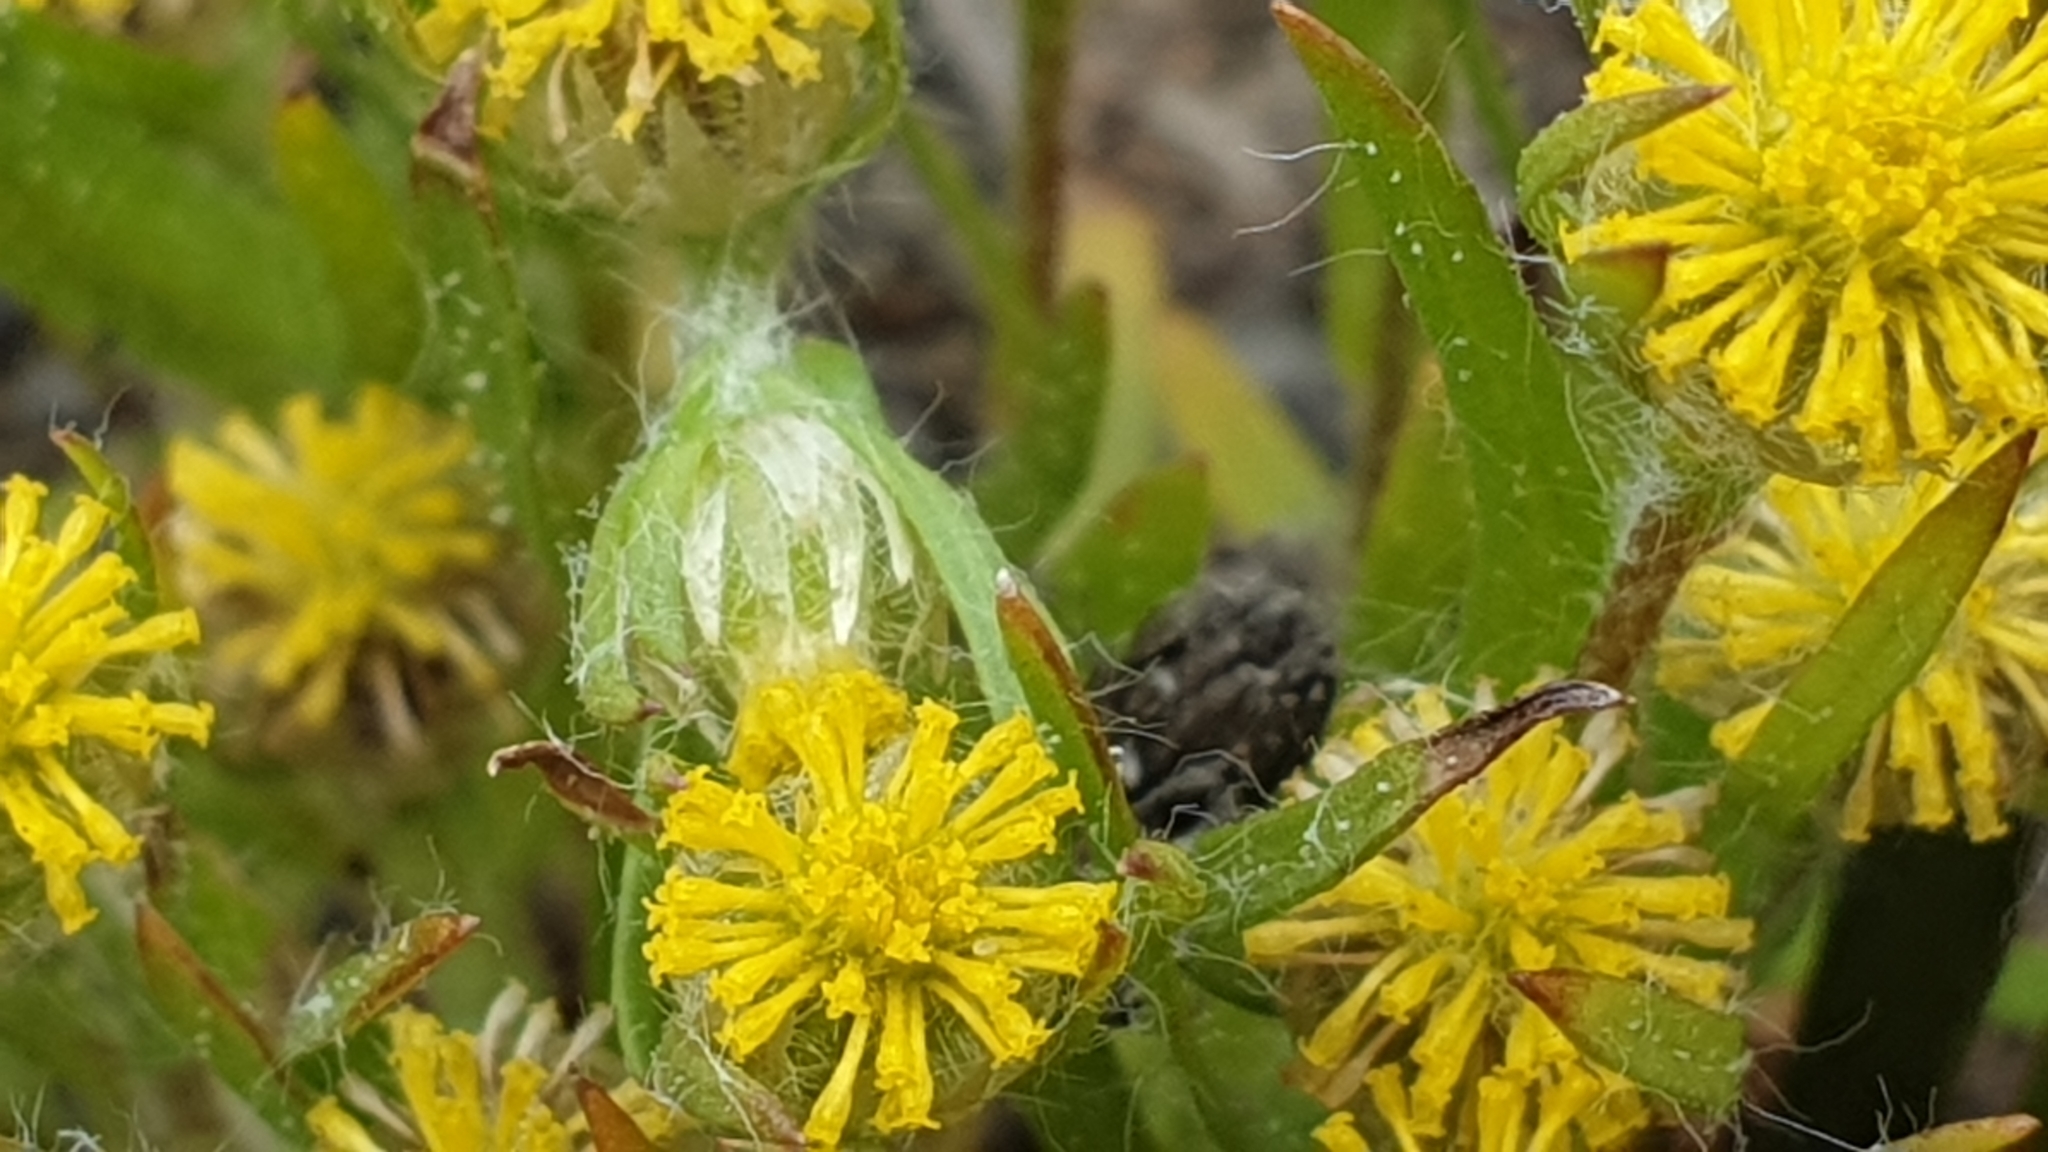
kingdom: Plantae
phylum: Tracheophyta
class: Magnoliopsida
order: Asterales
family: Asteraceae
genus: Triptilodiscus
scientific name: Triptilodiscus pygmaeus
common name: Common sunray
